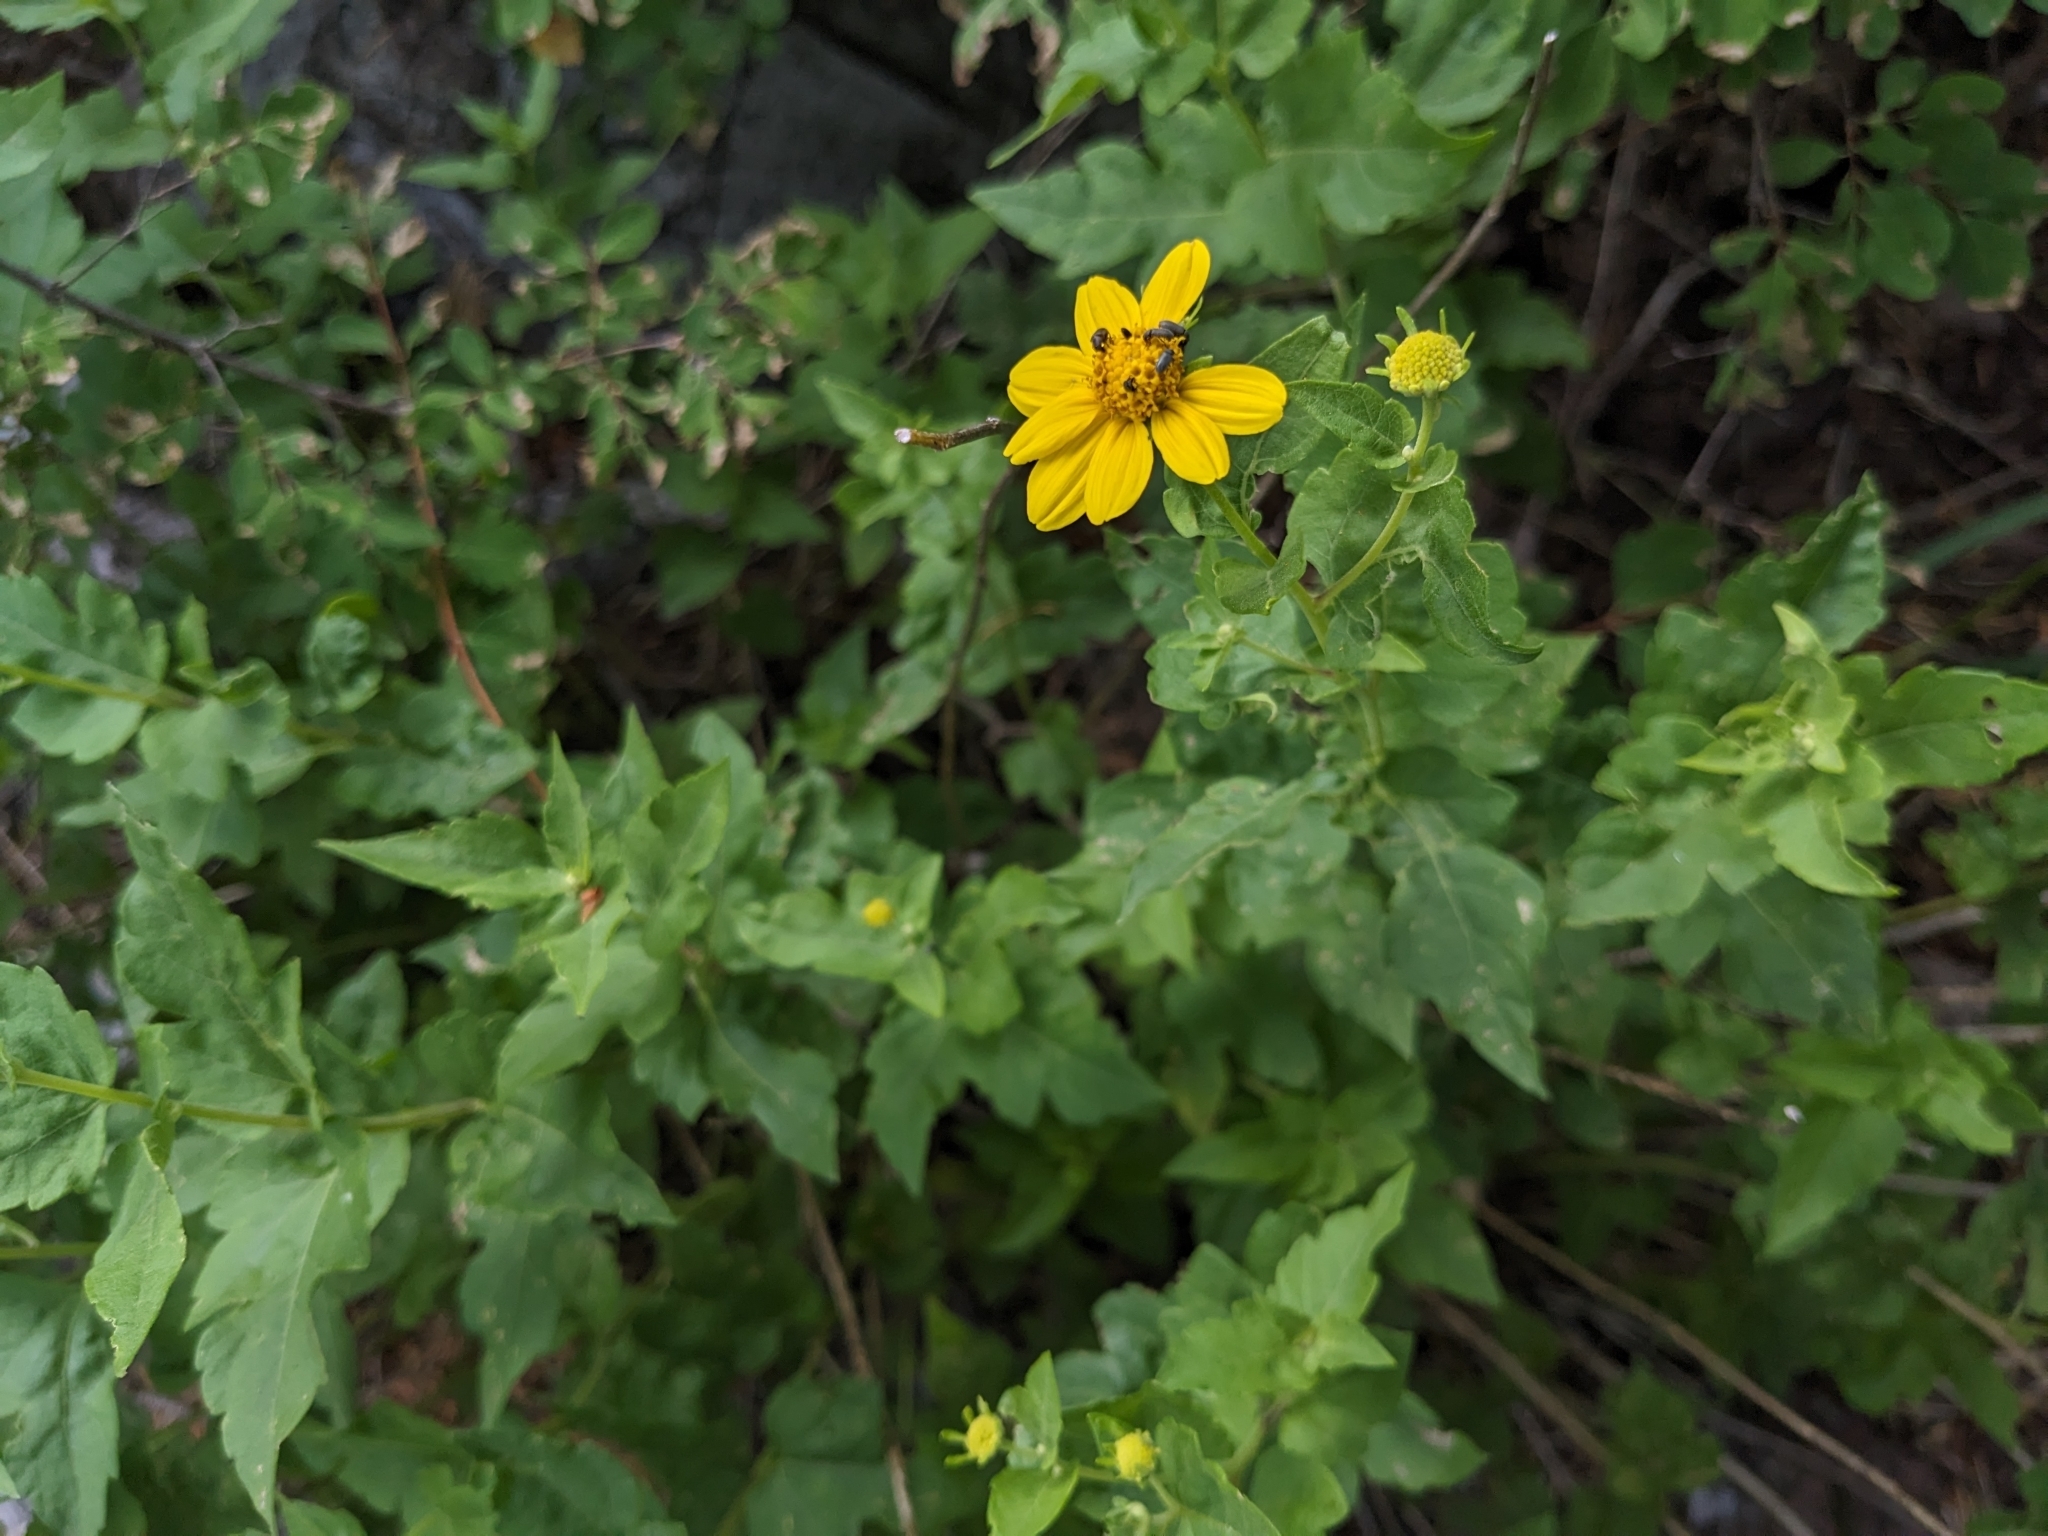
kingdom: Plantae
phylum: Tracheophyta
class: Magnoliopsida
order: Asterales
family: Asteraceae
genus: Zaluzania
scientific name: Zaluzania grayana
